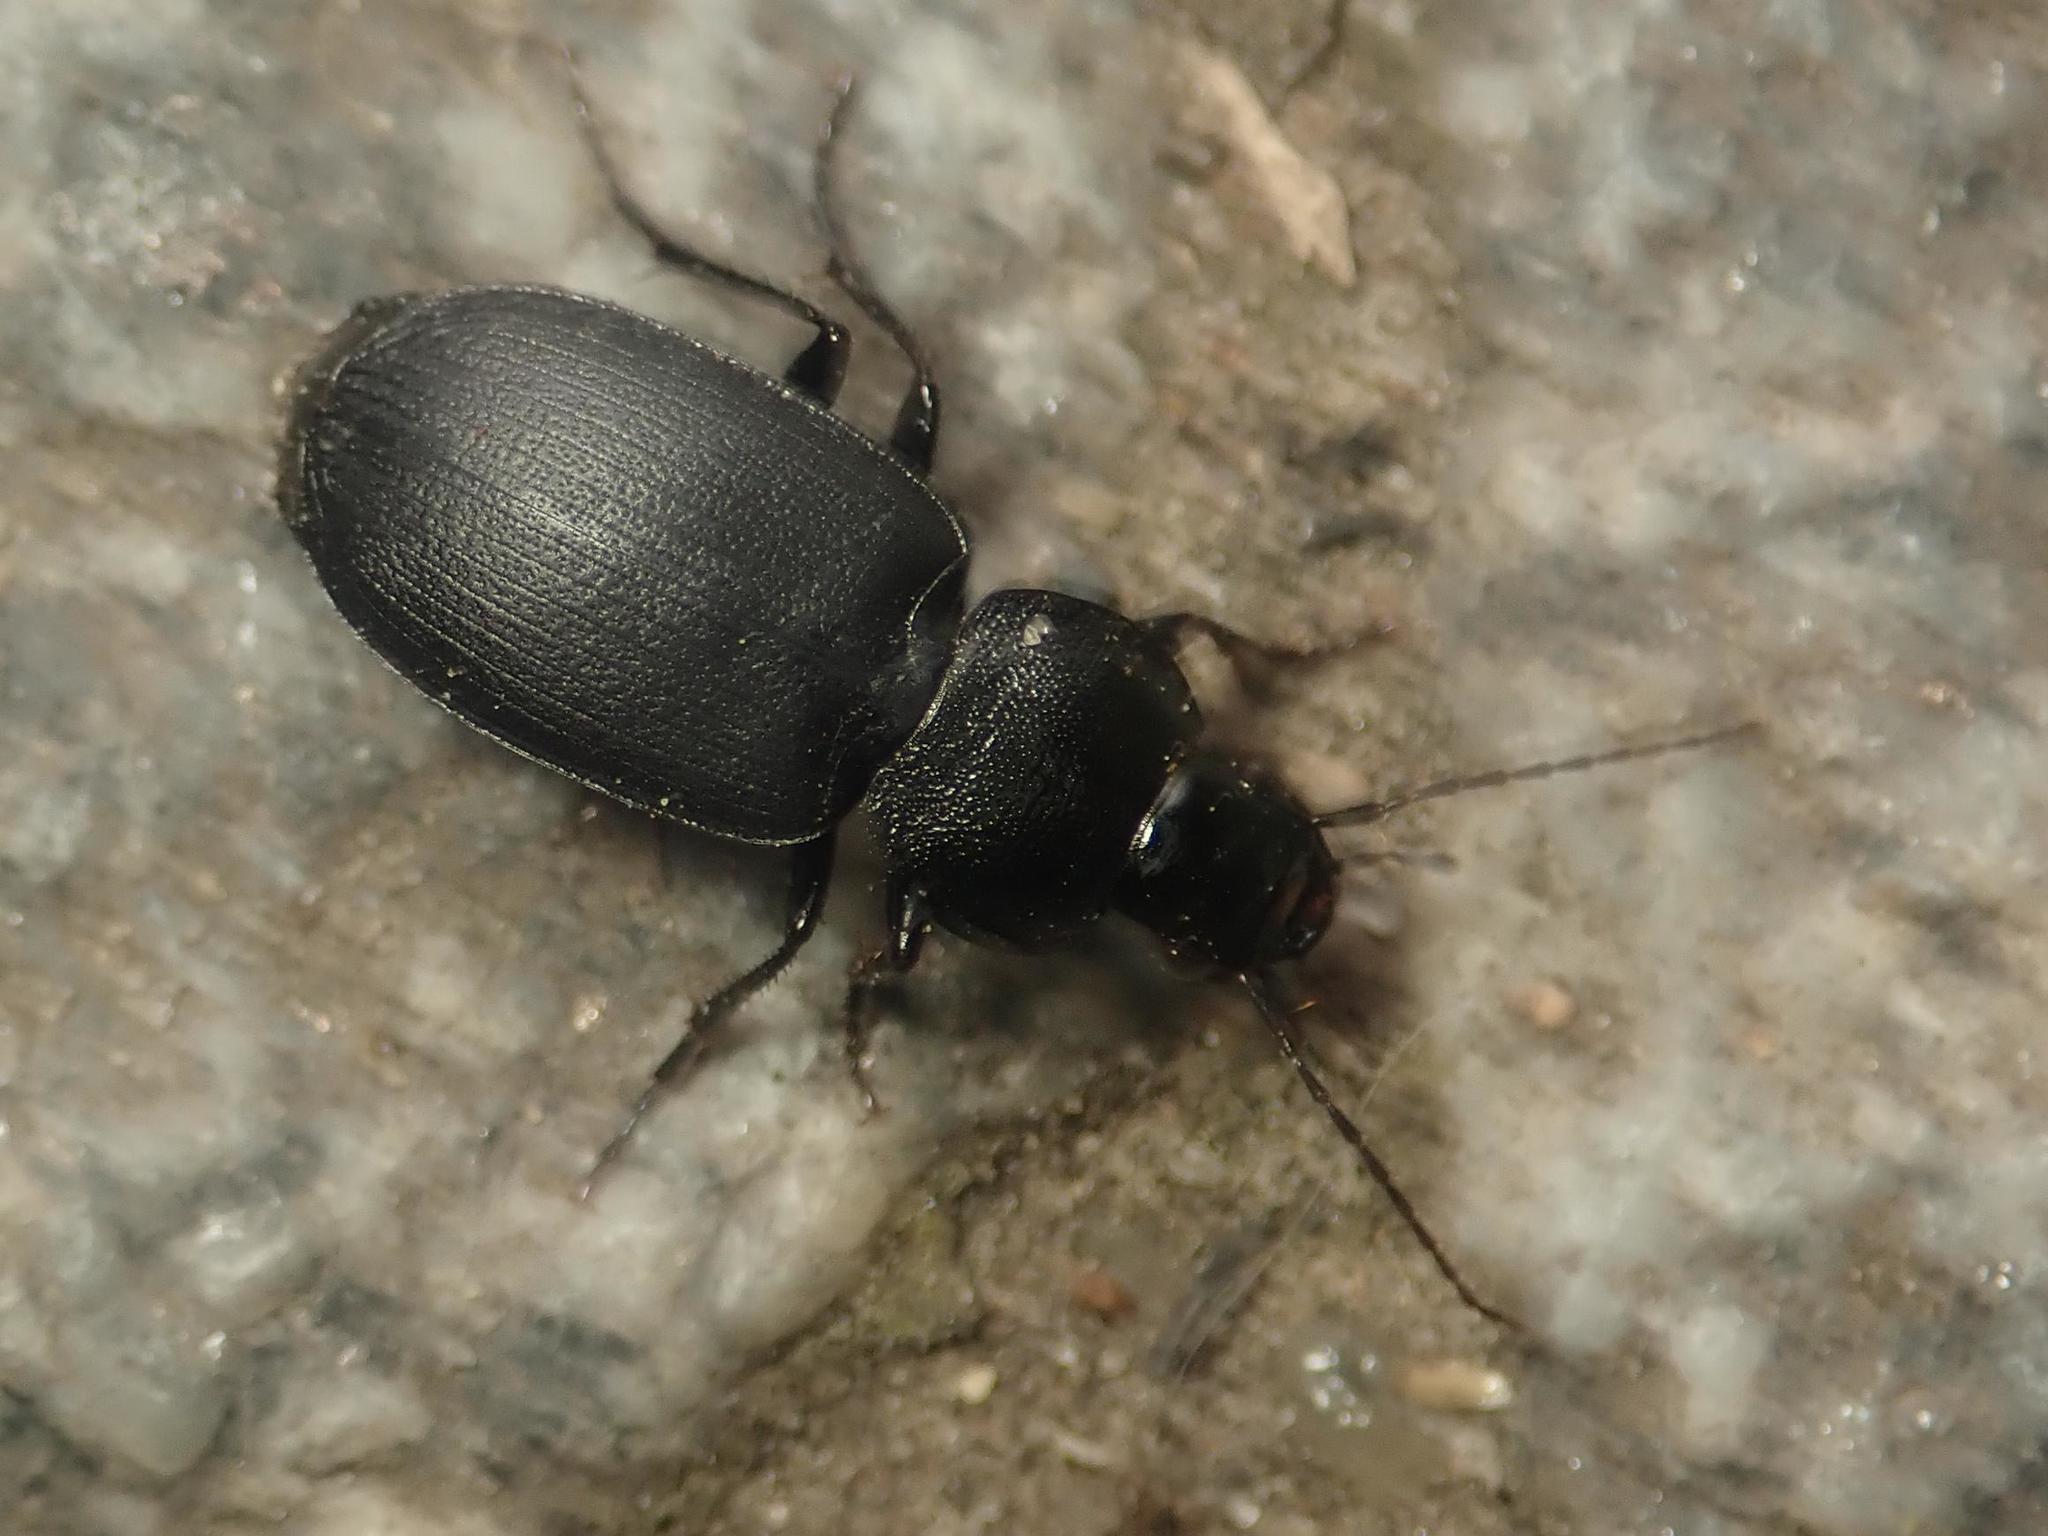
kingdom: Animalia
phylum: Arthropoda
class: Insecta
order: Coleoptera
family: Carabidae
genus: Licinus
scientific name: Licinus depressus
